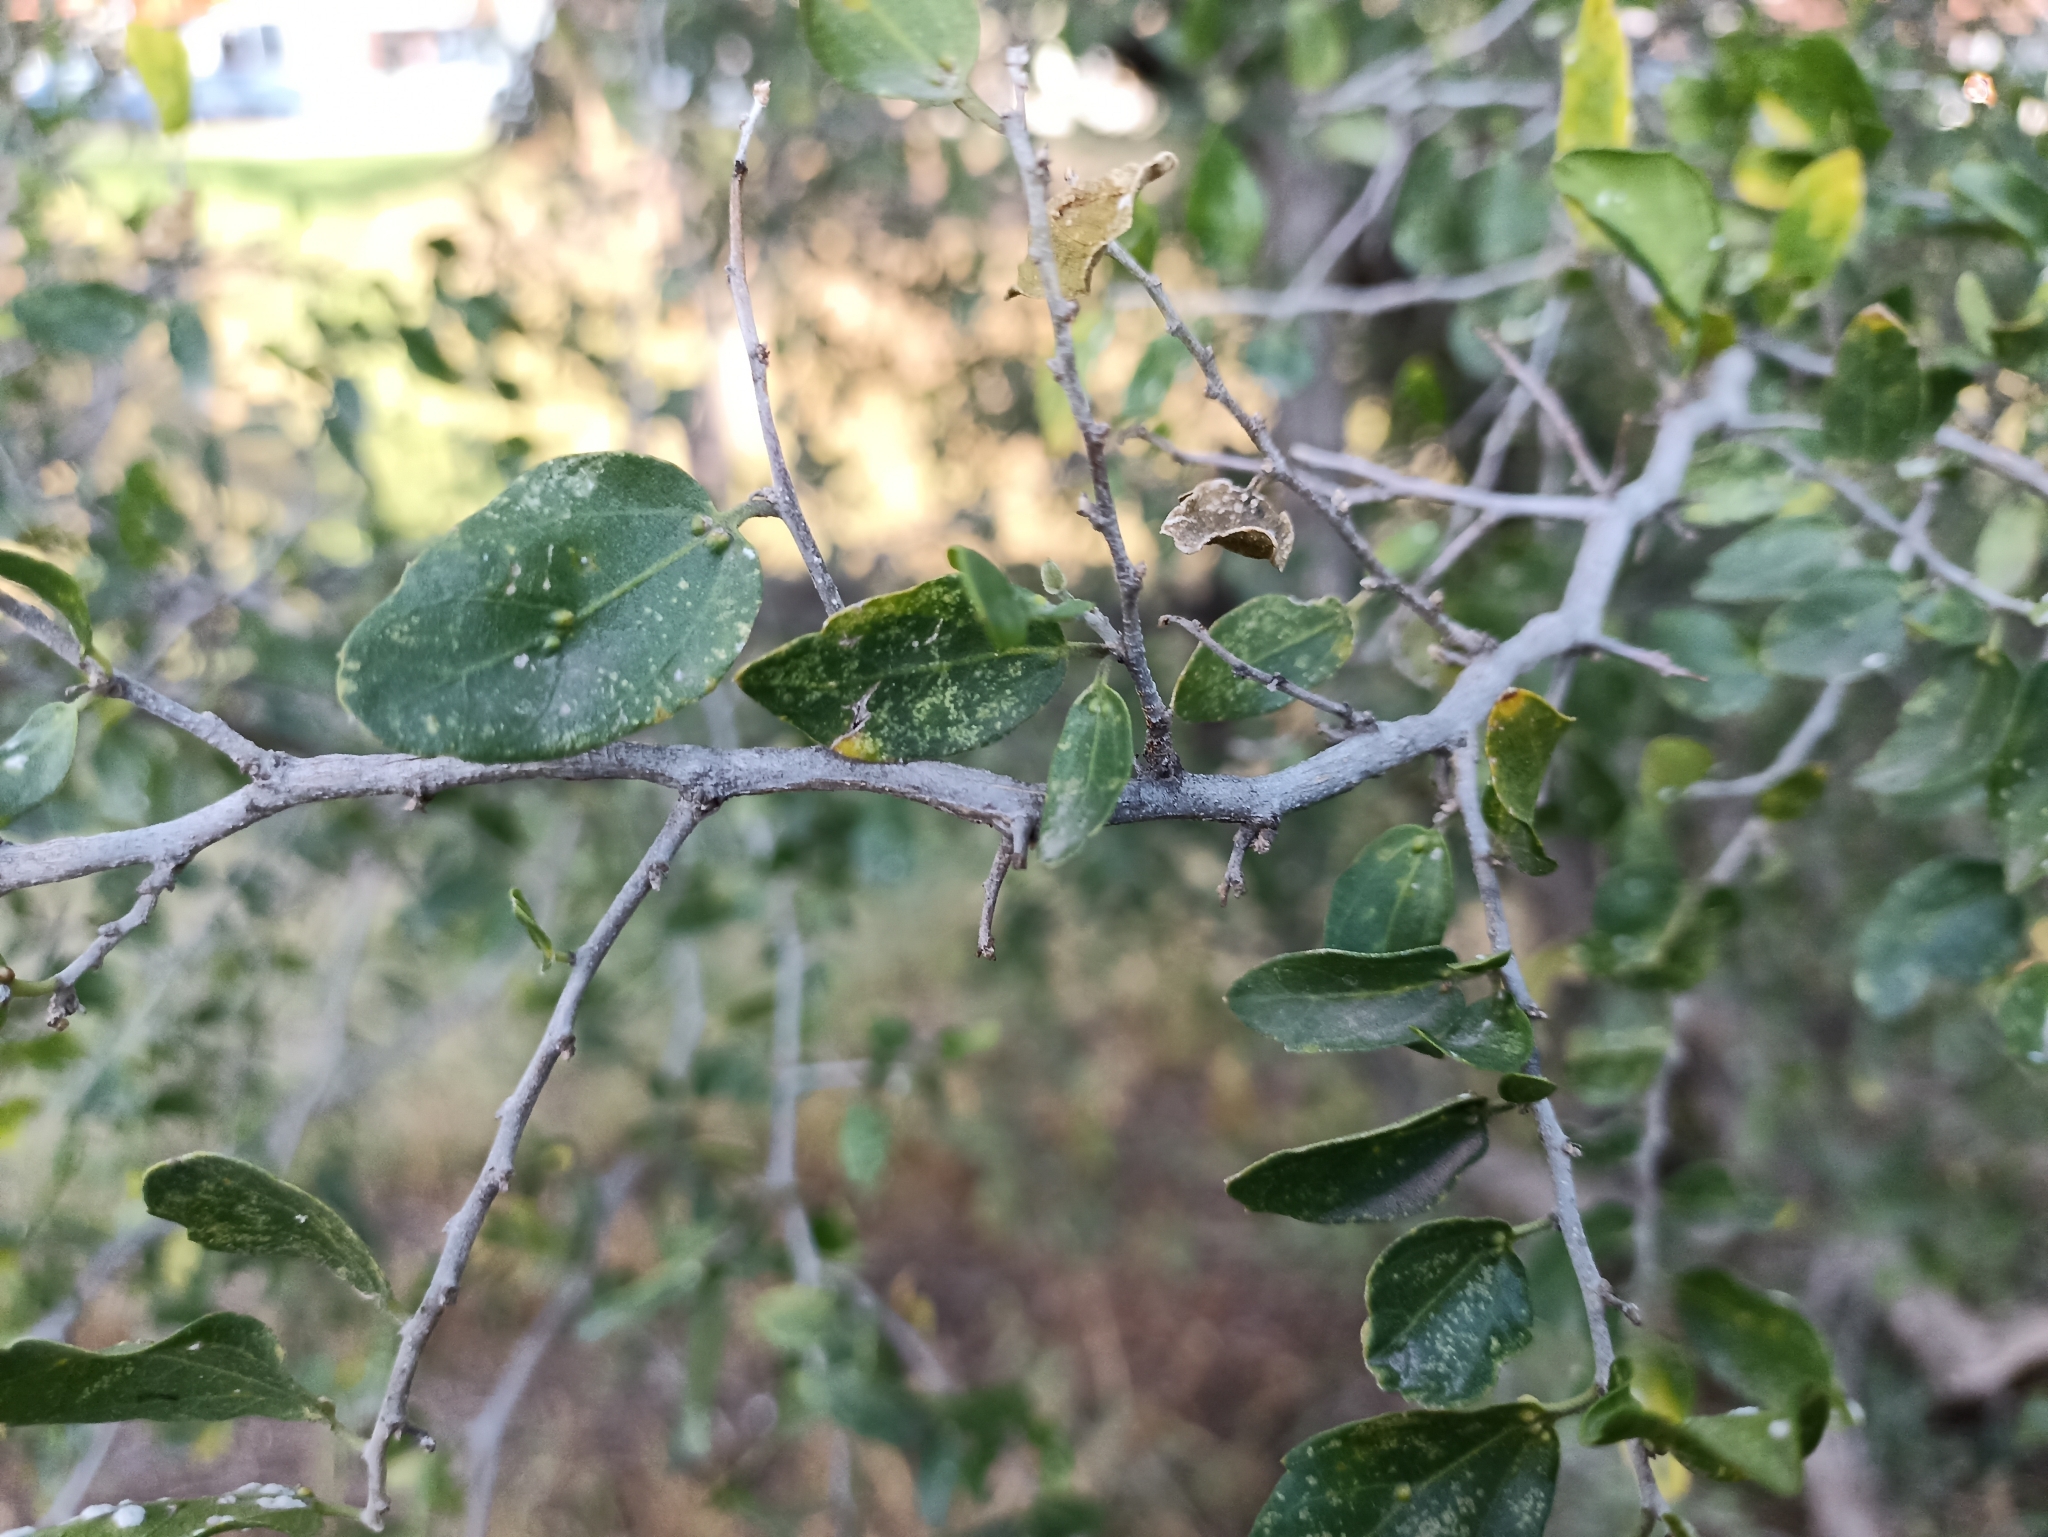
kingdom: Plantae
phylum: Tracheophyta
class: Magnoliopsida
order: Rosales
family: Cannabaceae
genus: Celtis
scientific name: Celtis pallida
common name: Desert hackberry
